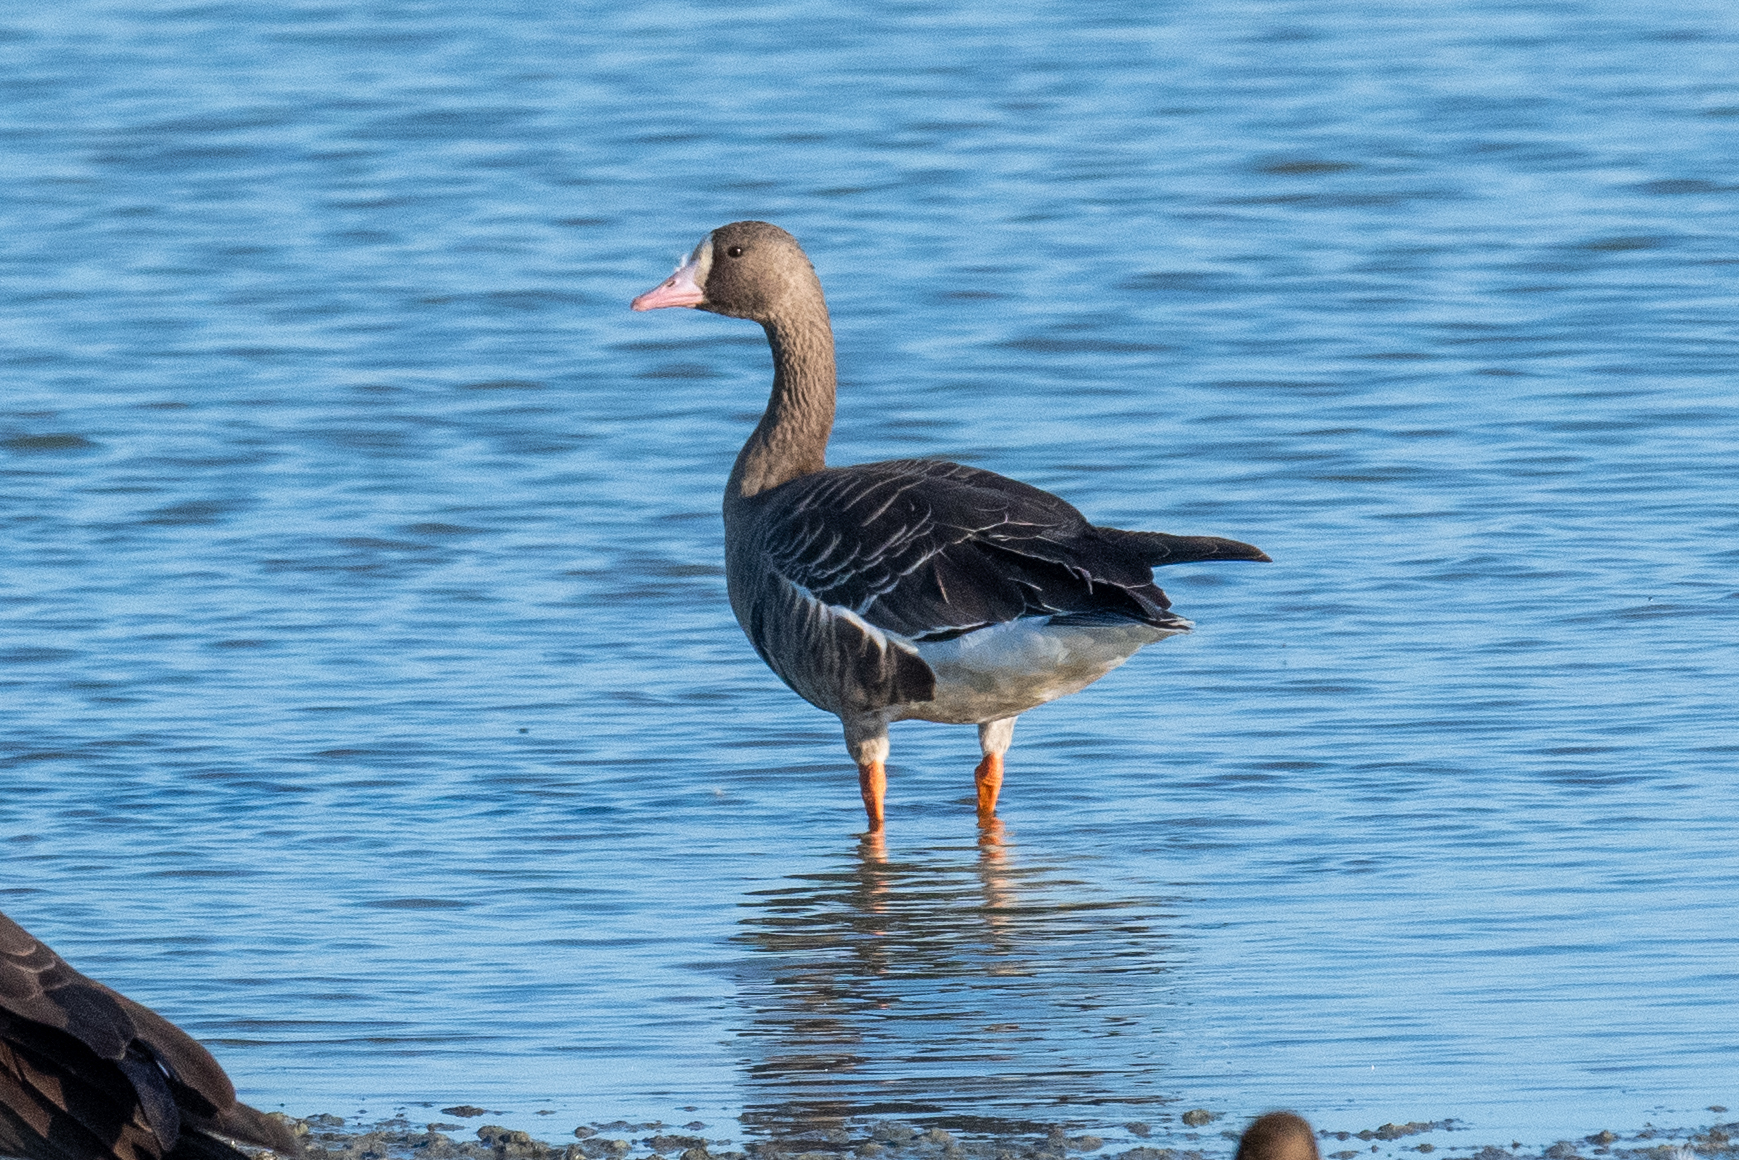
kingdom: Animalia
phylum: Chordata
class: Aves
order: Anseriformes
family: Anatidae
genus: Anser
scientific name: Anser albifrons
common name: Greater white-fronted goose
